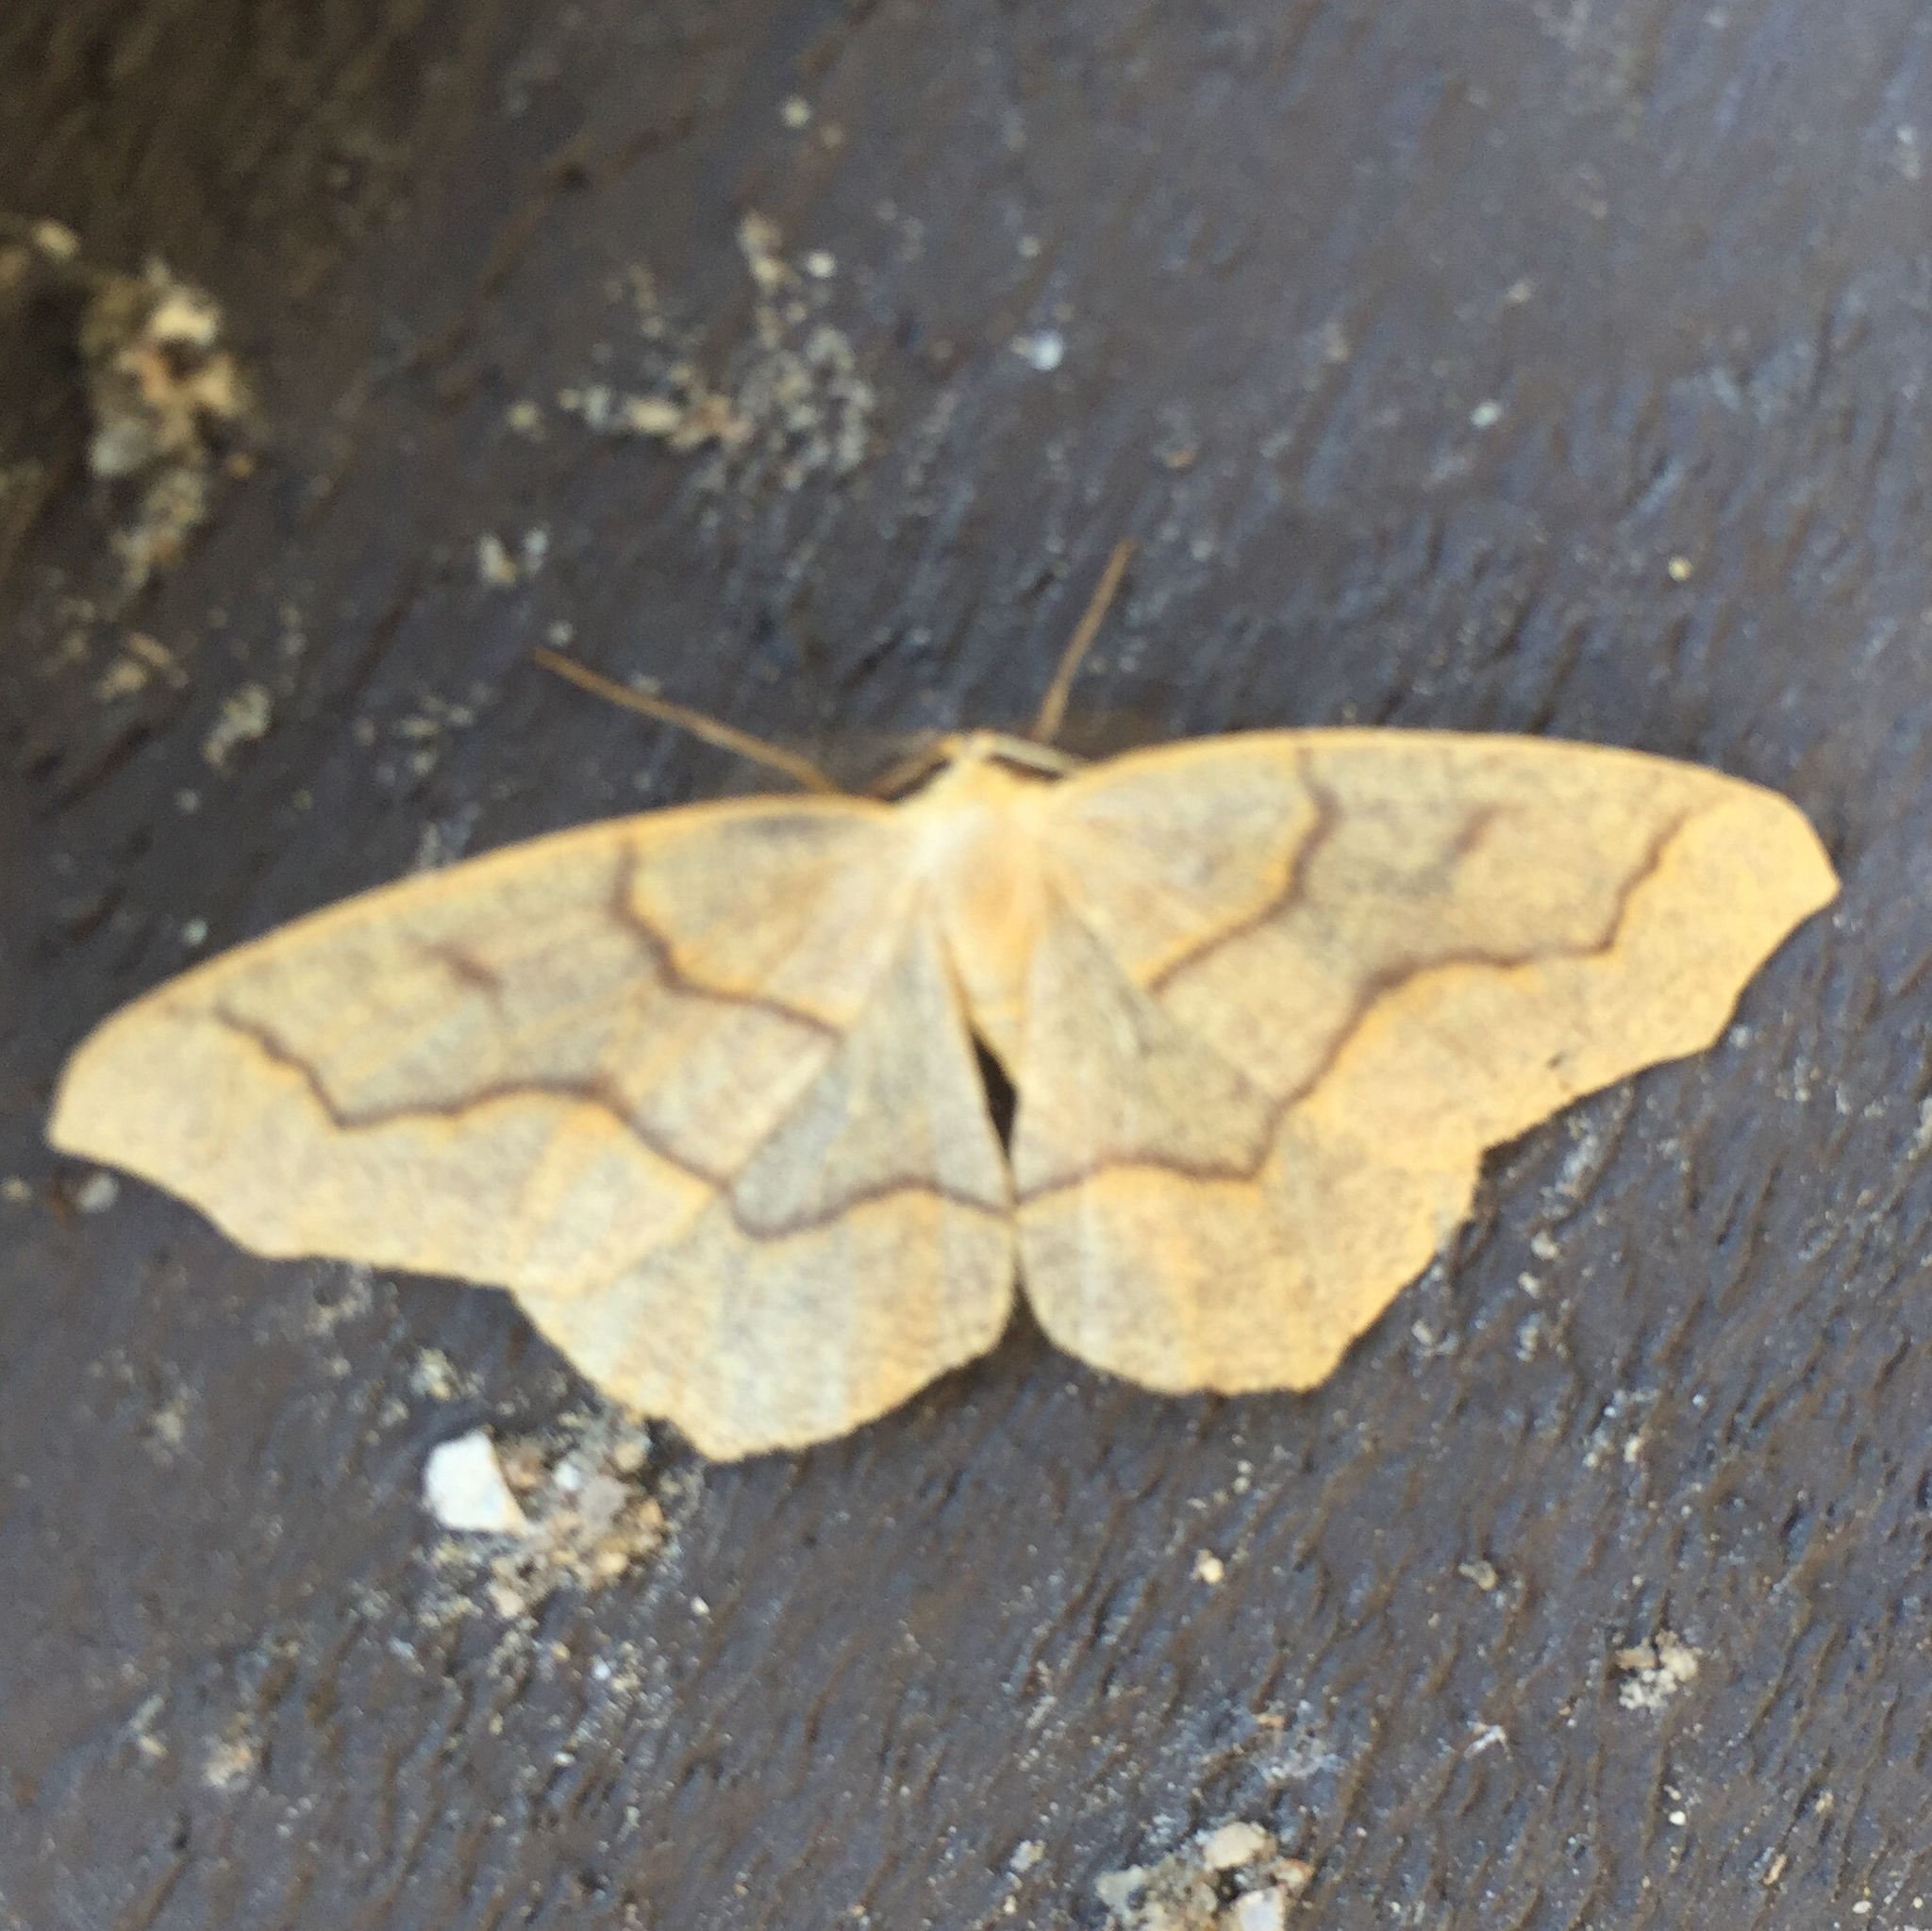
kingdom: Animalia
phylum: Arthropoda
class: Insecta
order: Lepidoptera
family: Geometridae
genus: Lambdina
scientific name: Lambdina fiscellaria
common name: Hemlock looper
